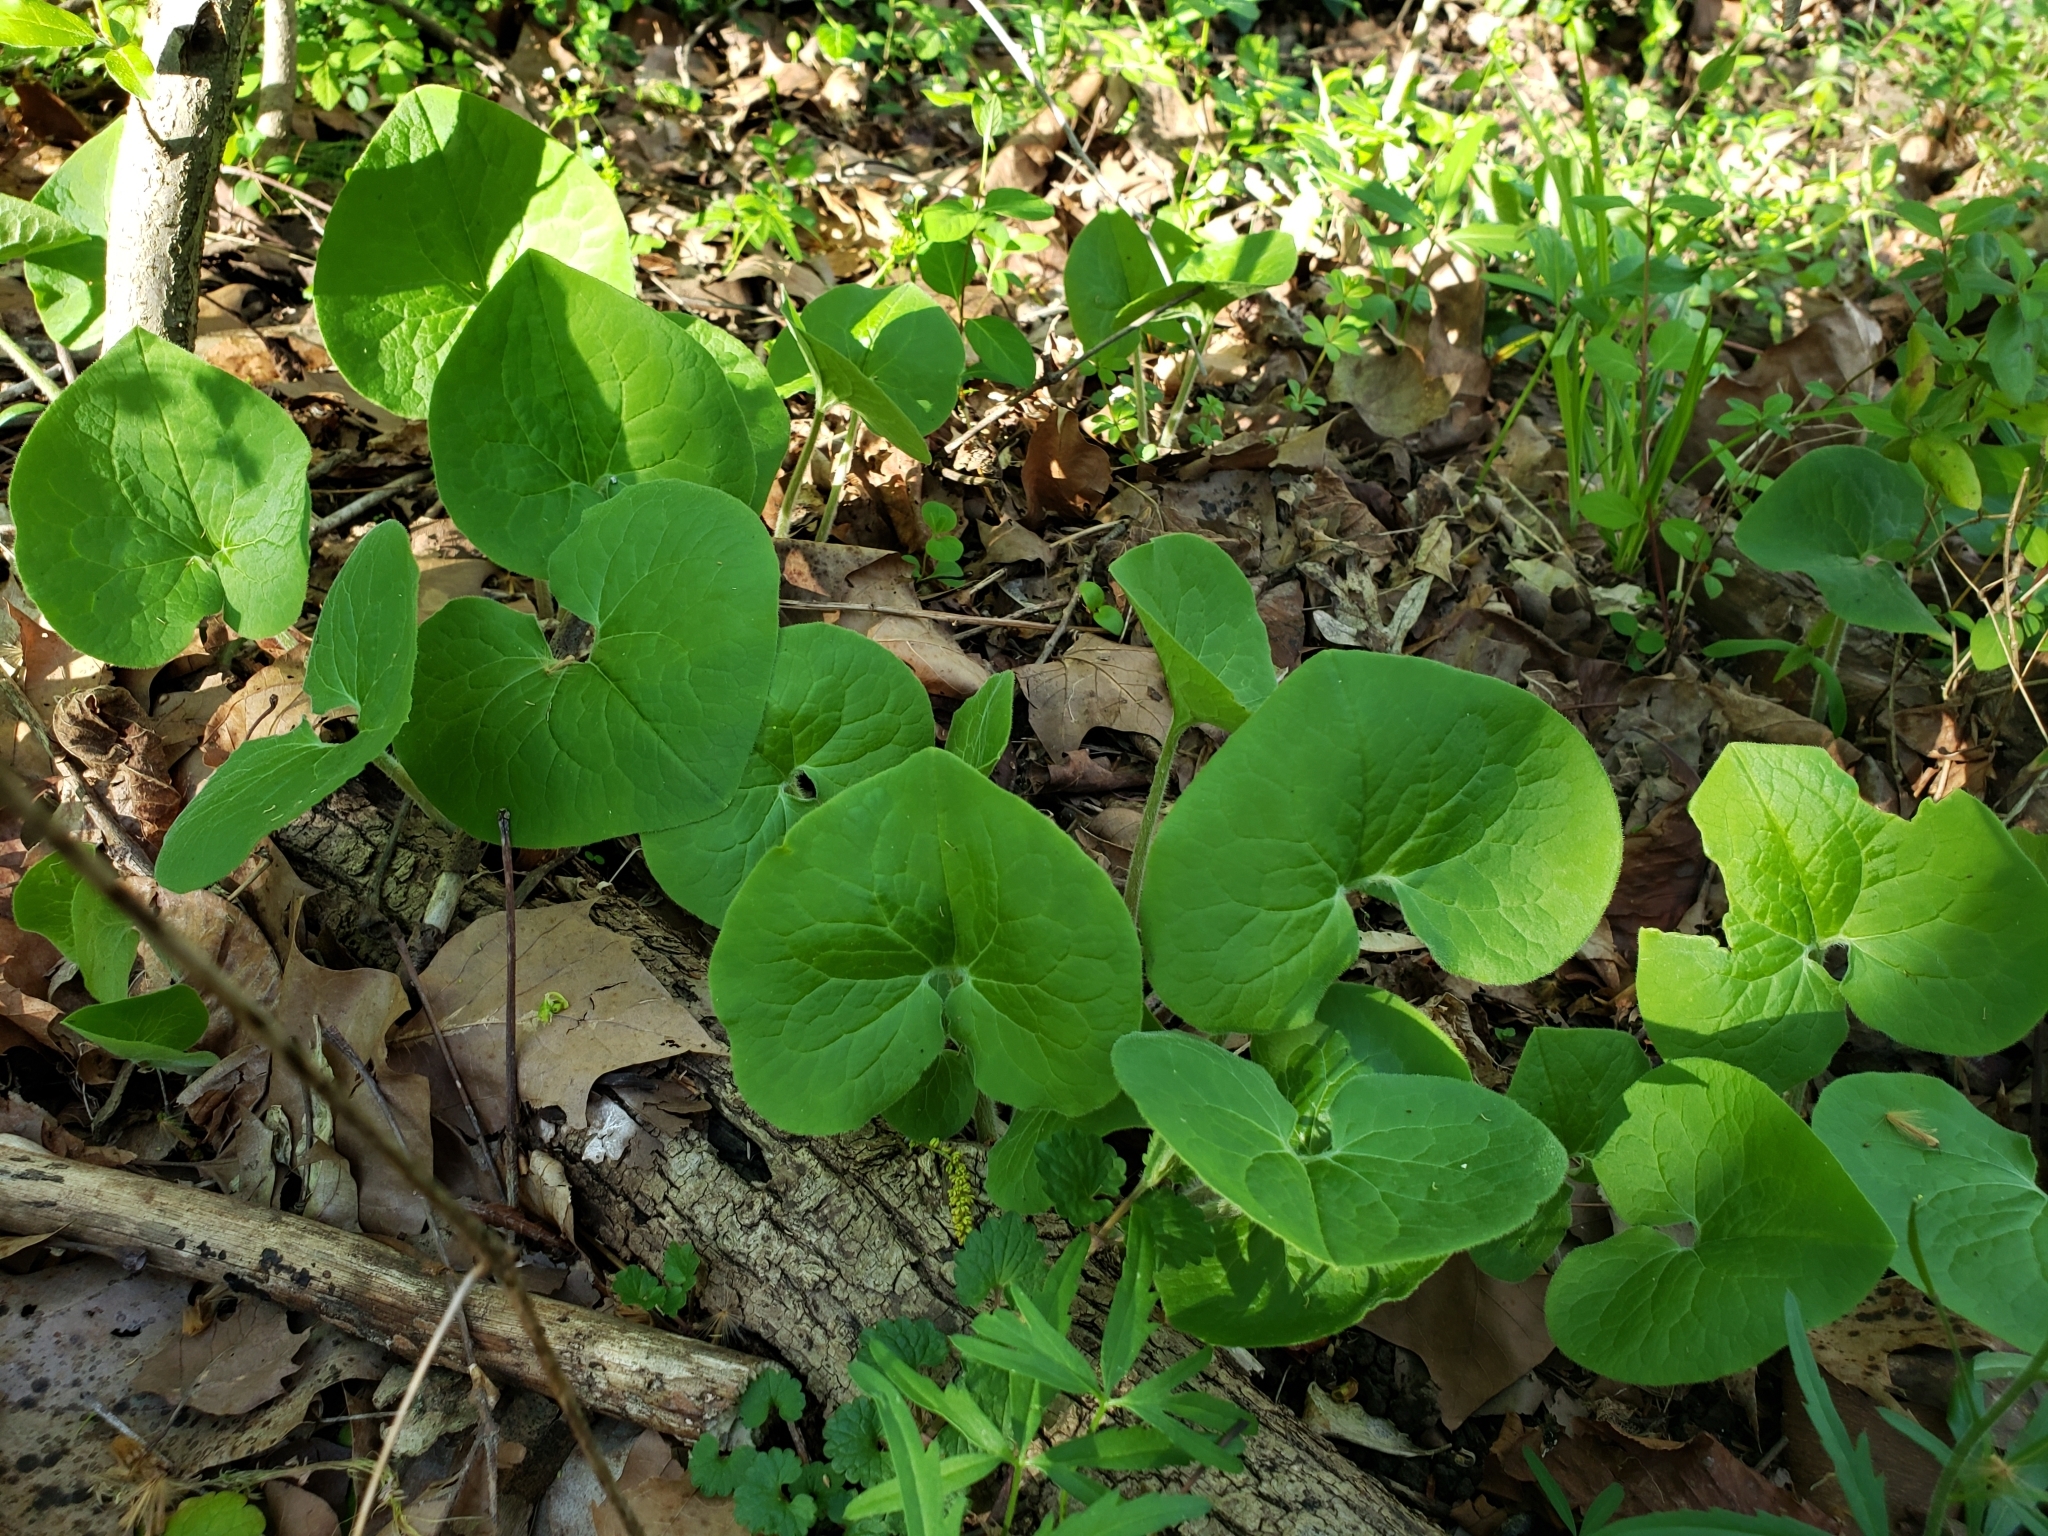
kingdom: Plantae
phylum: Tracheophyta
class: Magnoliopsida
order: Piperales
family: Aristolochiaceae
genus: Asarum
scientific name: Asarum canadense
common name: Wild ginger
